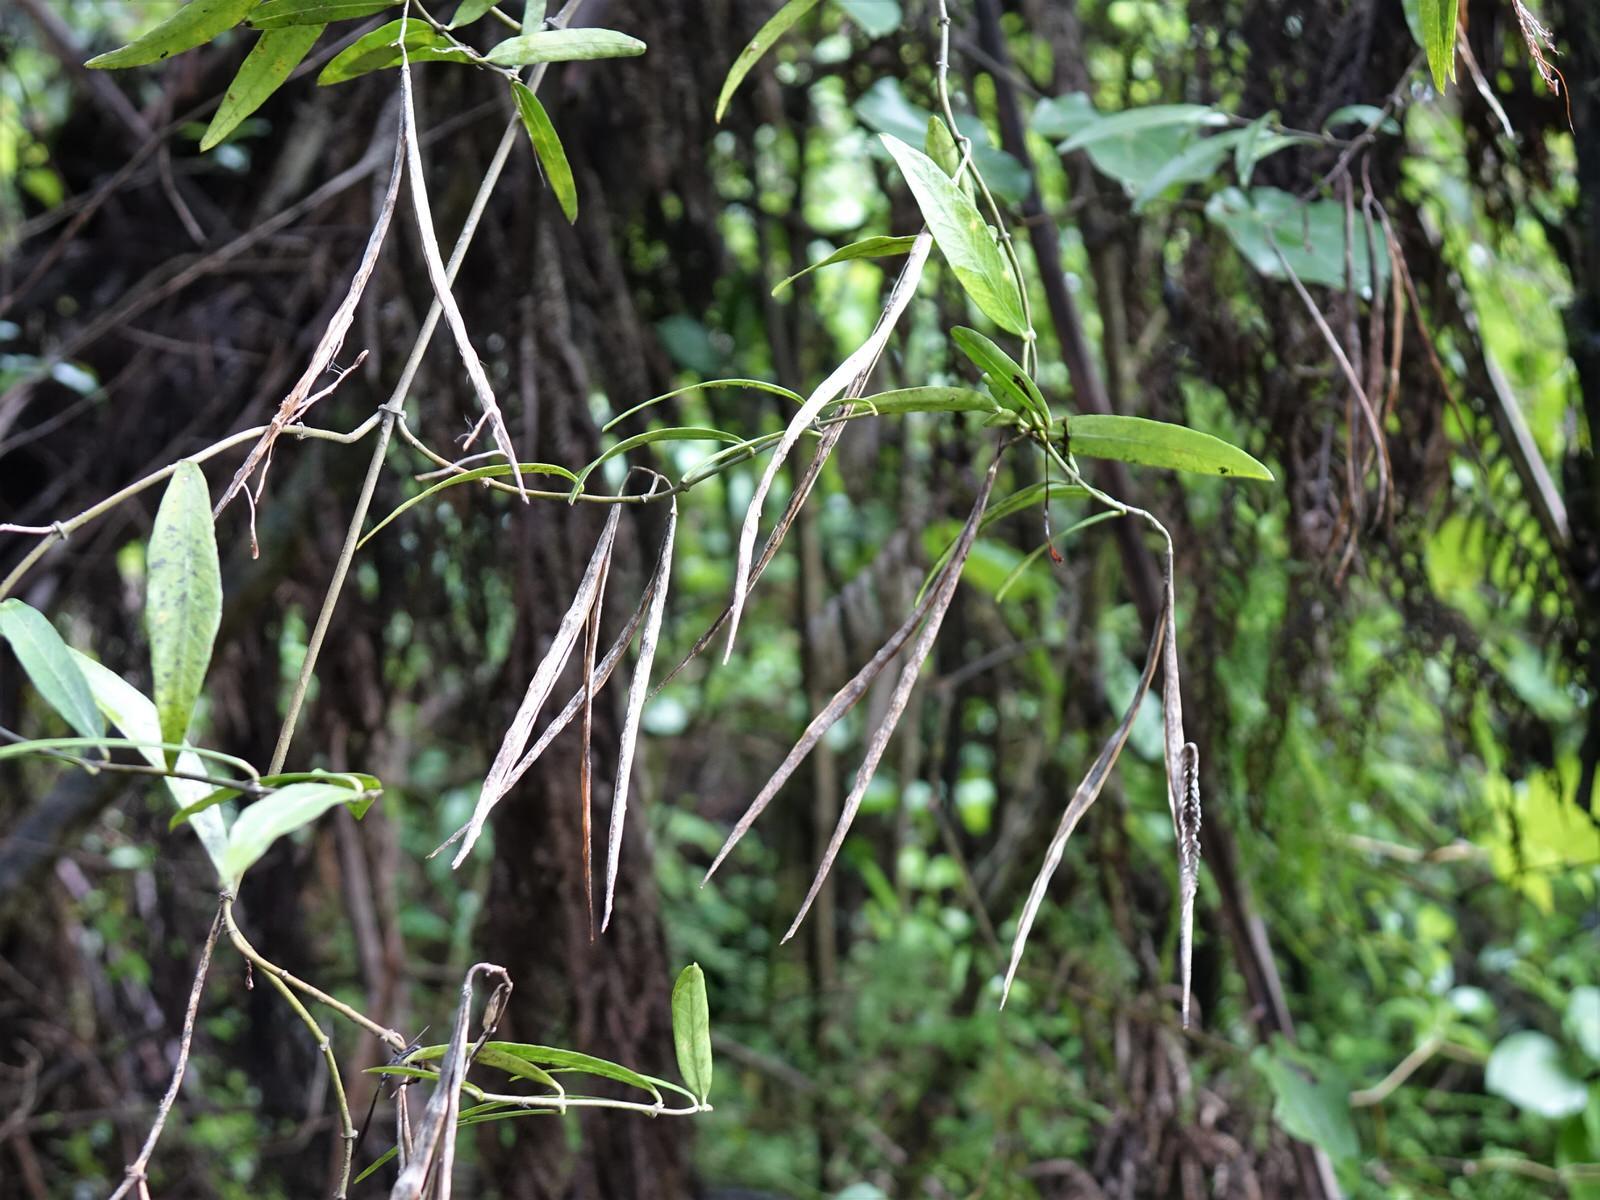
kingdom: Plantae
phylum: Tracheophyta
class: Magnoliopsida
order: Gentianales
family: Apocynaceae
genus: Parsonsia
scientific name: Parsonsia capsularis
